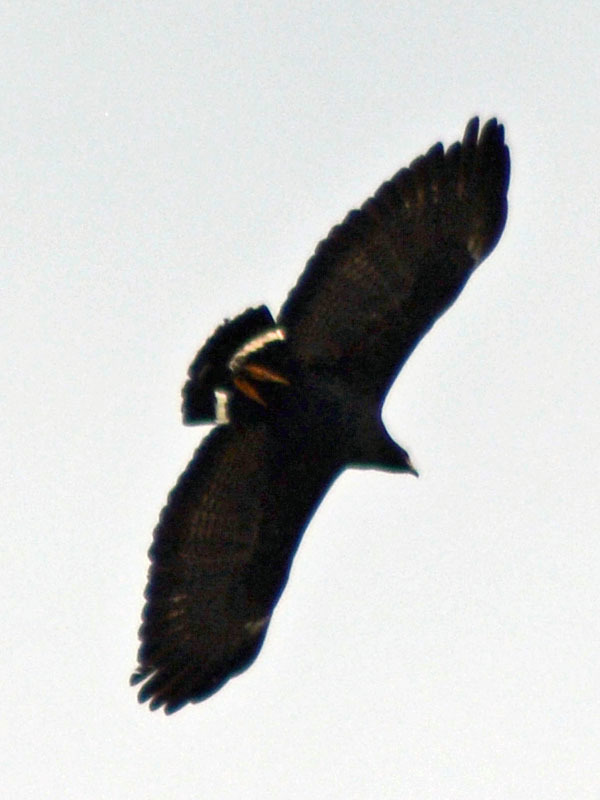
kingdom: Animalia
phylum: Chordata
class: Aves
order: Accipitriformes
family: Accipitridae
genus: Buteogallus
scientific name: Buteogallus anthracinus
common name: Common black hawk
